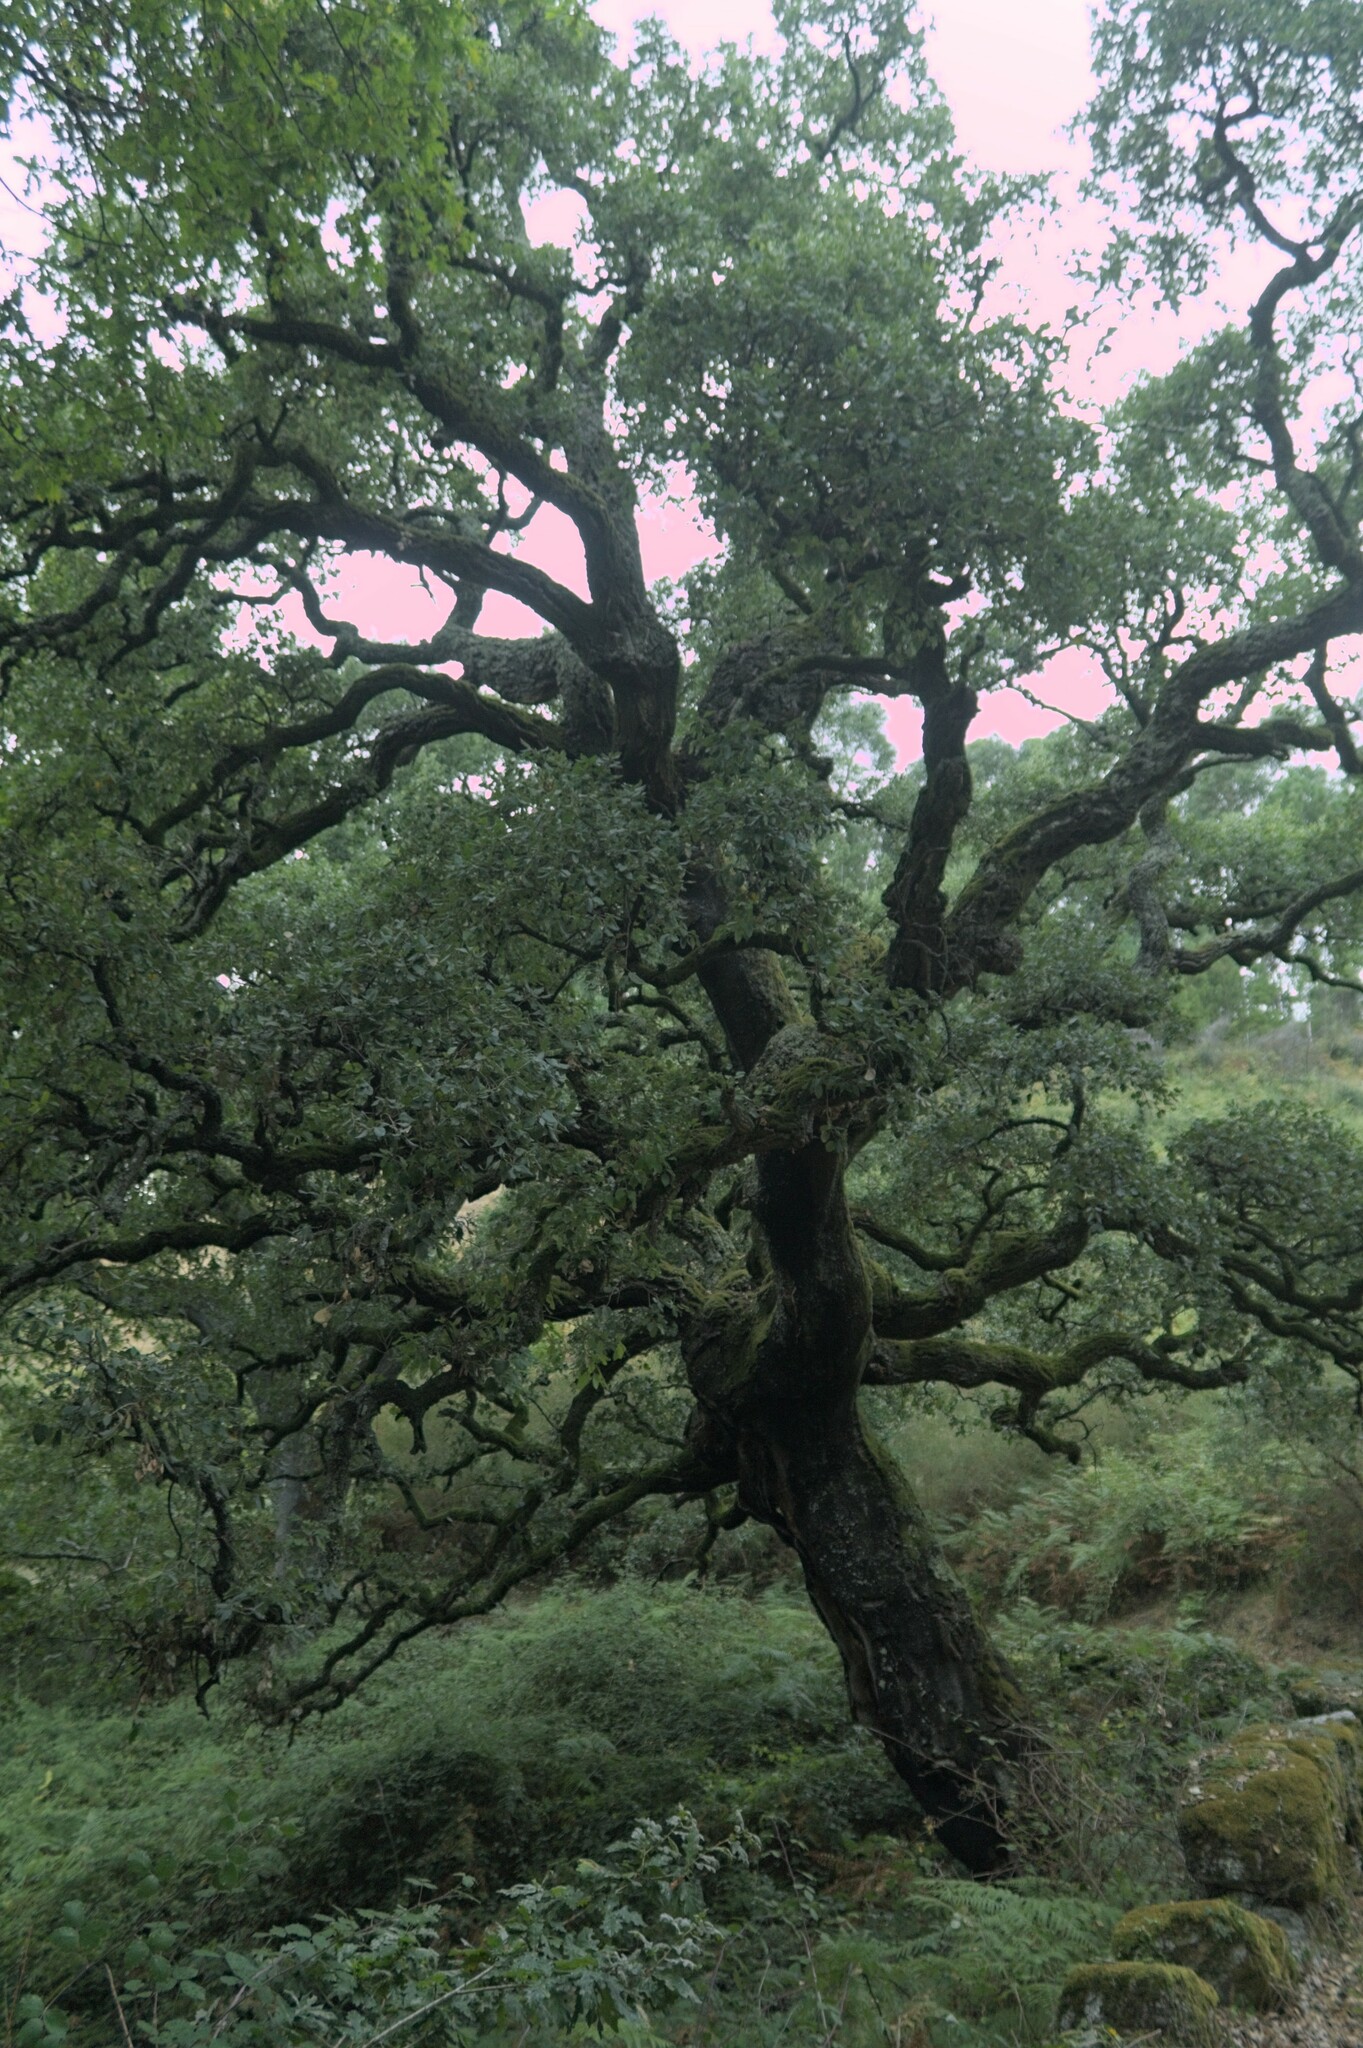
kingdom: Plantae
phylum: Tracheophyta
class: Magnoliopsida
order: Fagales
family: Fagaceae
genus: Quercus
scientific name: Quercus suber
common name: Cork oak
